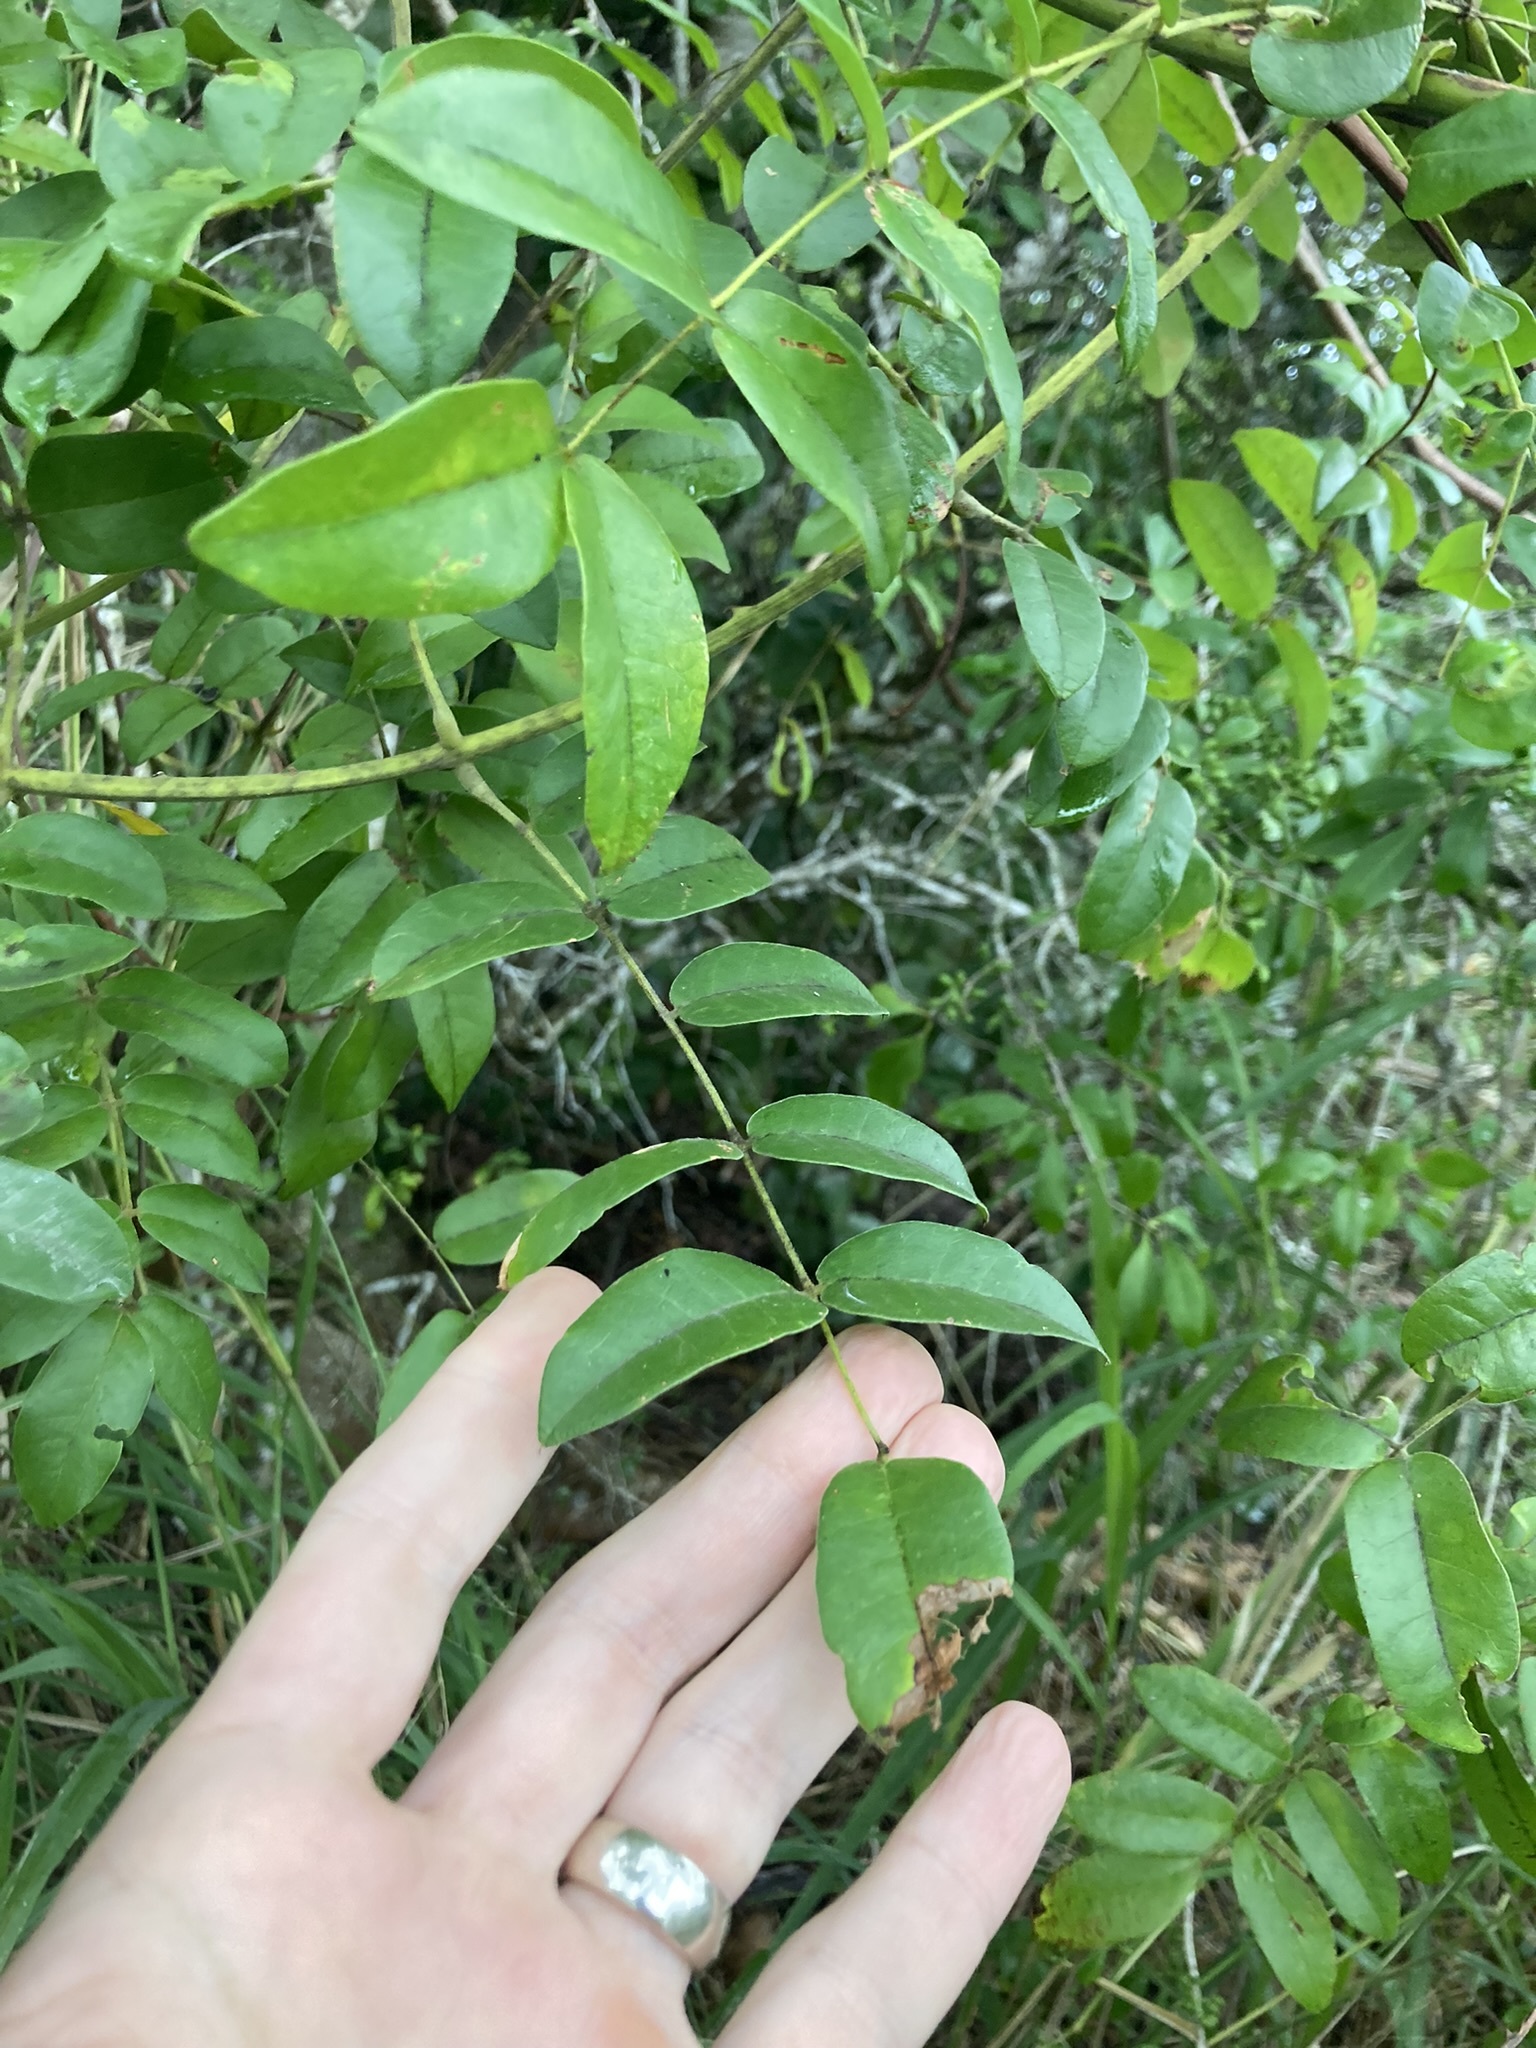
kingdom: Plantae
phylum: Tracheophyta
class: Magnoliopsida
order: Fabales
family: Fabaceae
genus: Guilandina
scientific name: Guilandina bonduc
